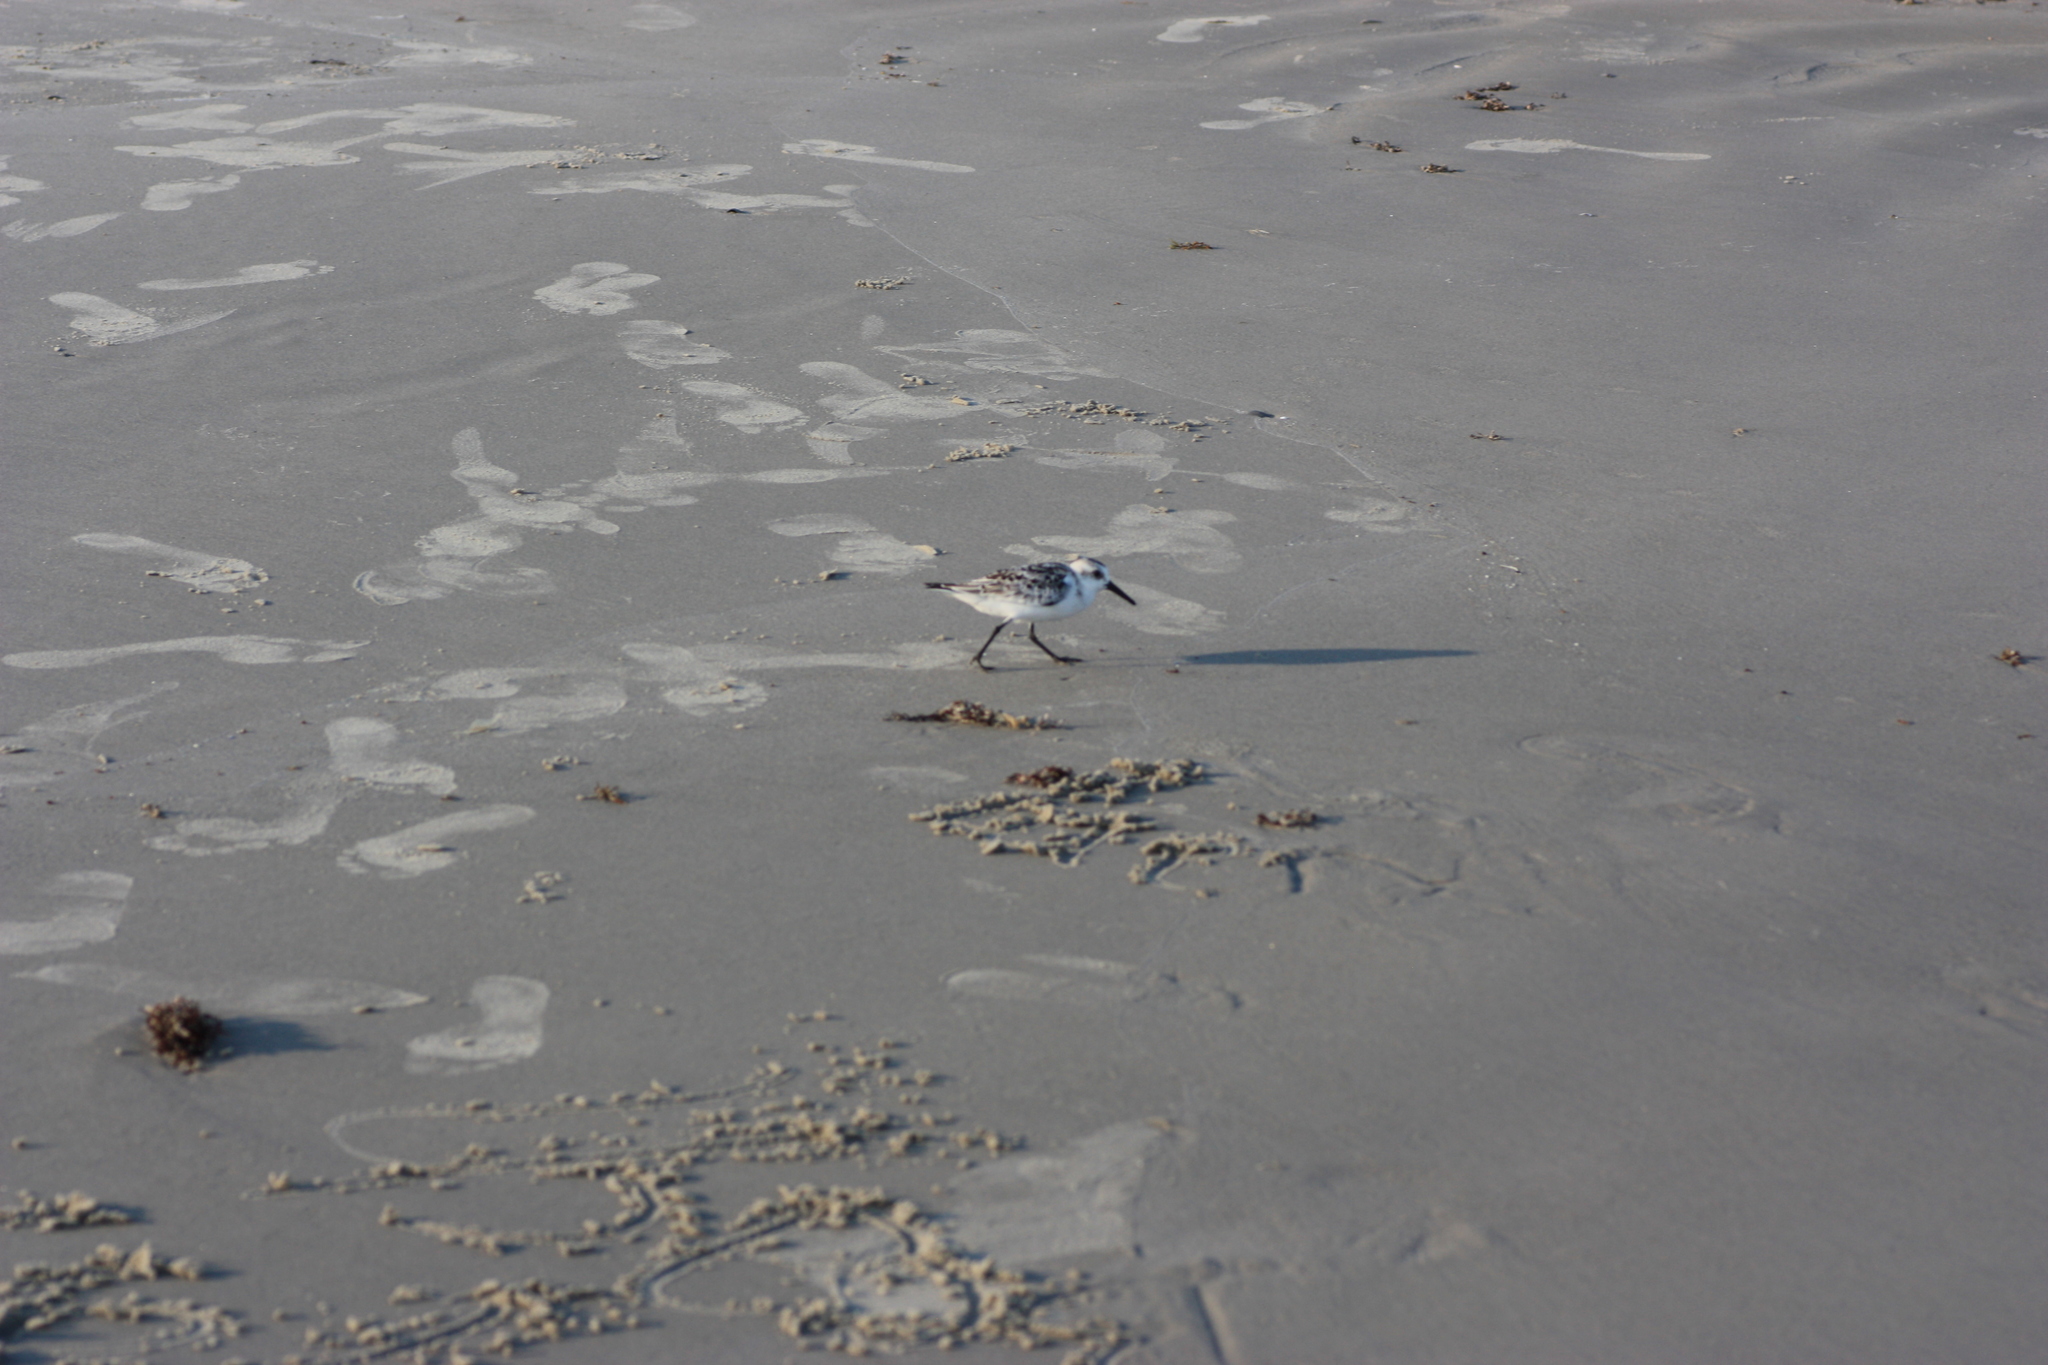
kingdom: Animalia
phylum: Chordata
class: Aves
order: Charadriiformes
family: Scolopacidae
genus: Calidris
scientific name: Calidris alba
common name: Sanderling
